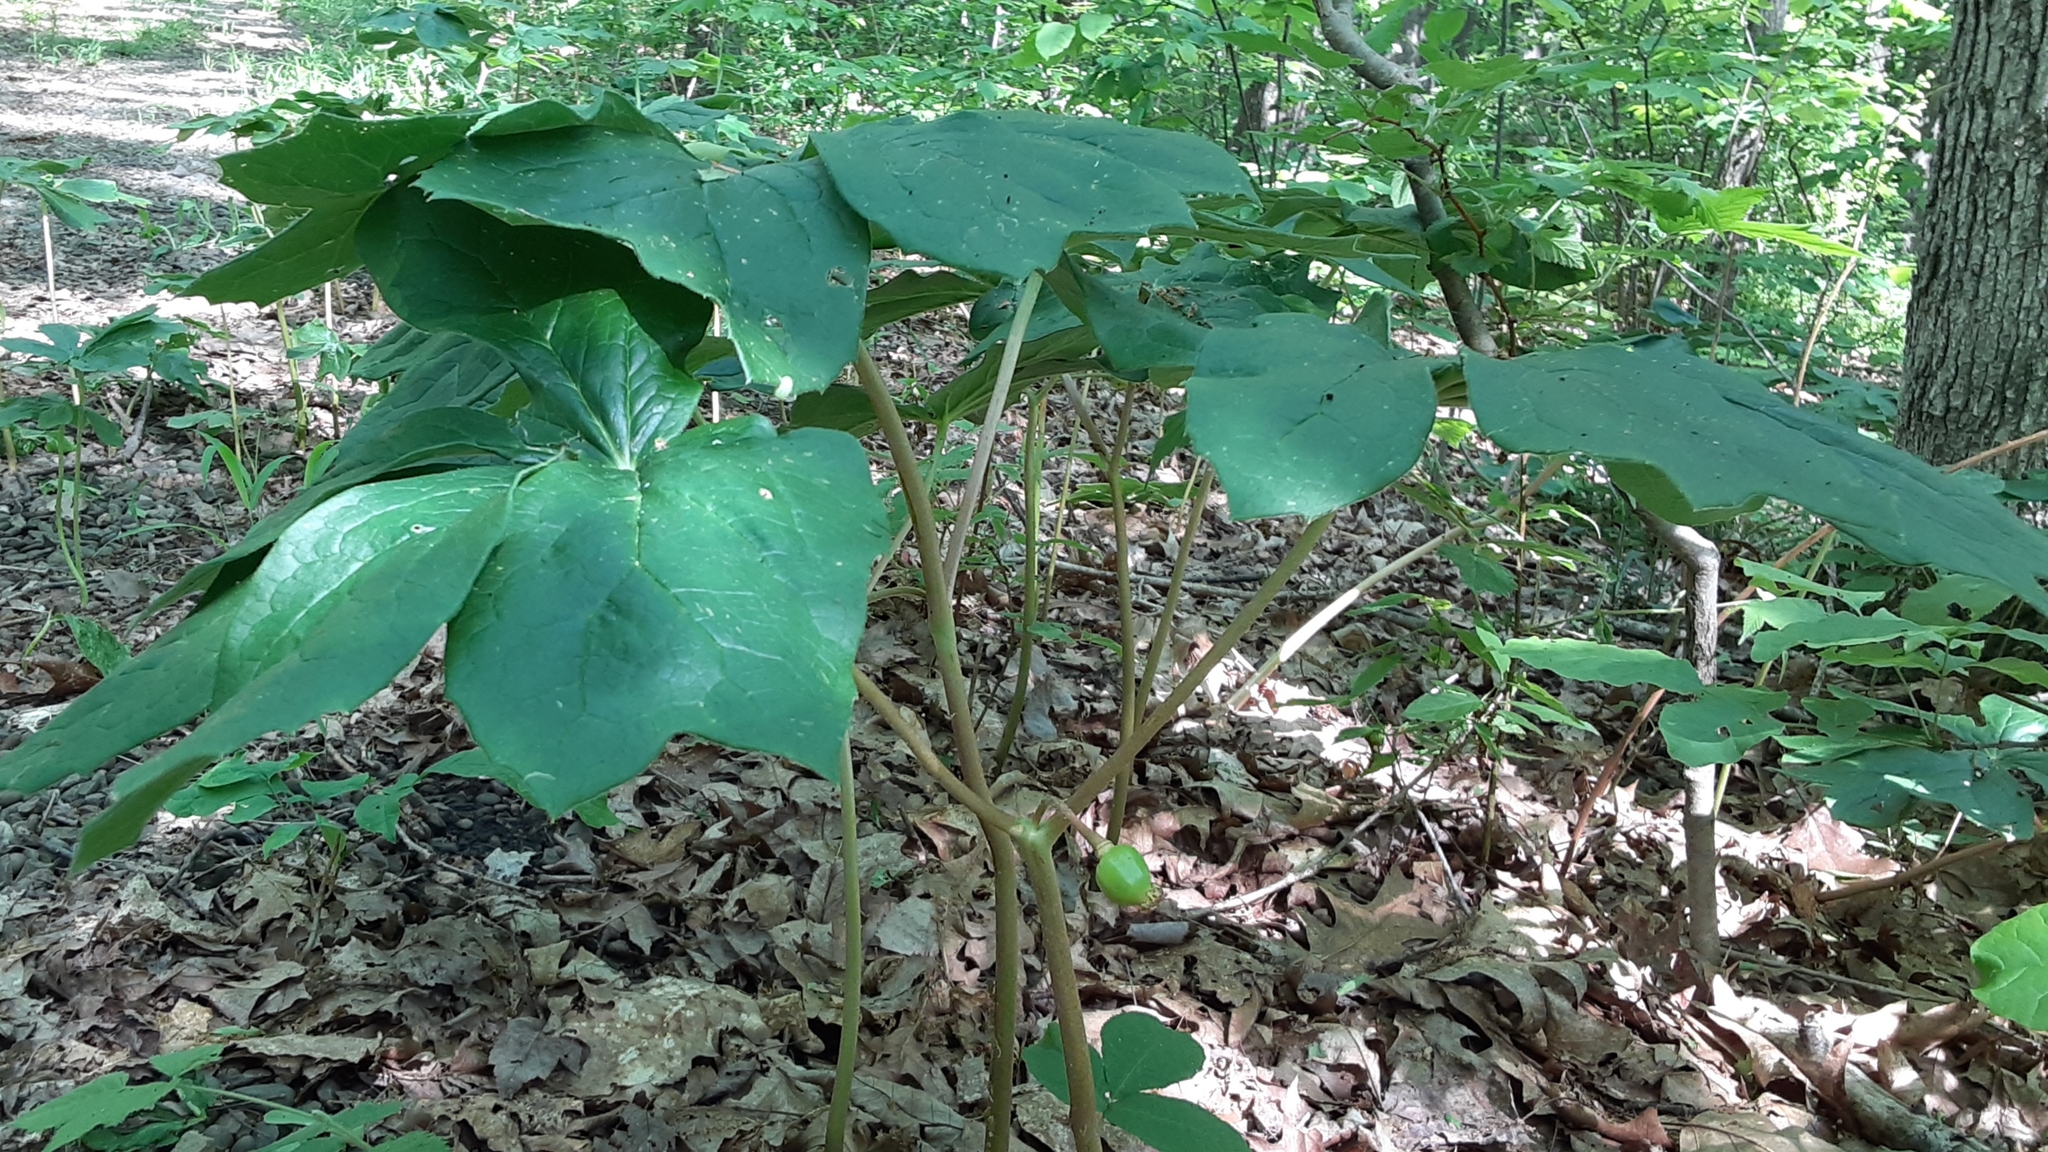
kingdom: Plantae
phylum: Tracheophyta
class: Magnoliopsida
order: Ranunculales
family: Berberidaceae
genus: Podophyllum
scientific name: Podophyllum peltatum
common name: Wild mandrake
